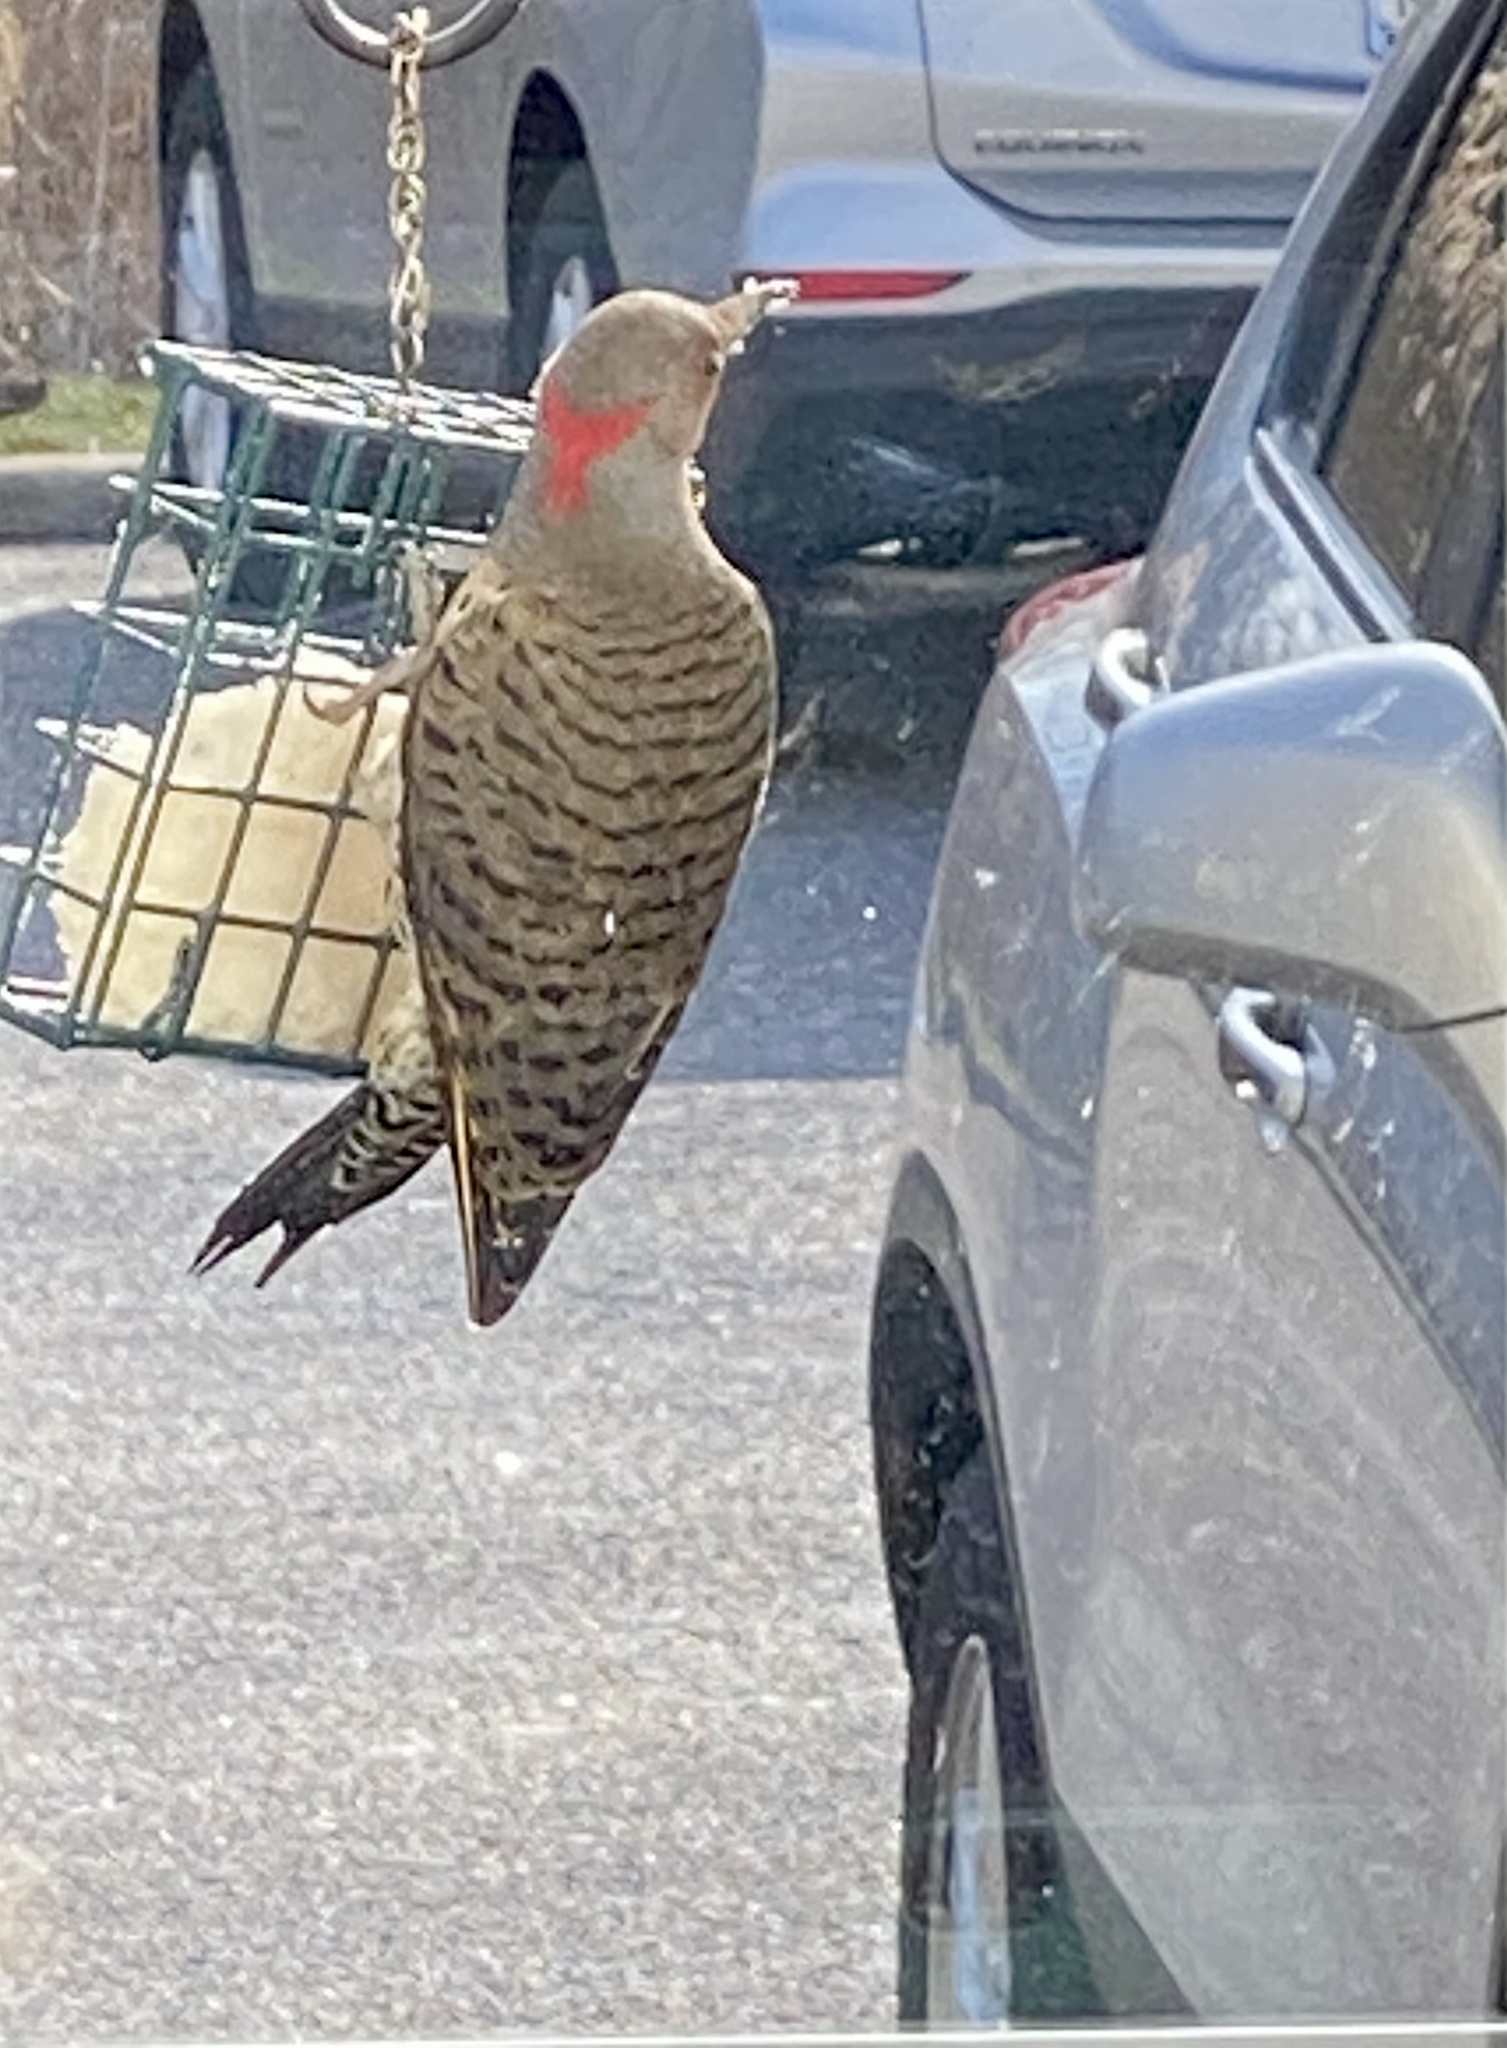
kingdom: Animalia
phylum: Chordata
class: Aves
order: Piciformes
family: Picidae
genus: Colaptes
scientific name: Colaptes auratus
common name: Northern flicker
